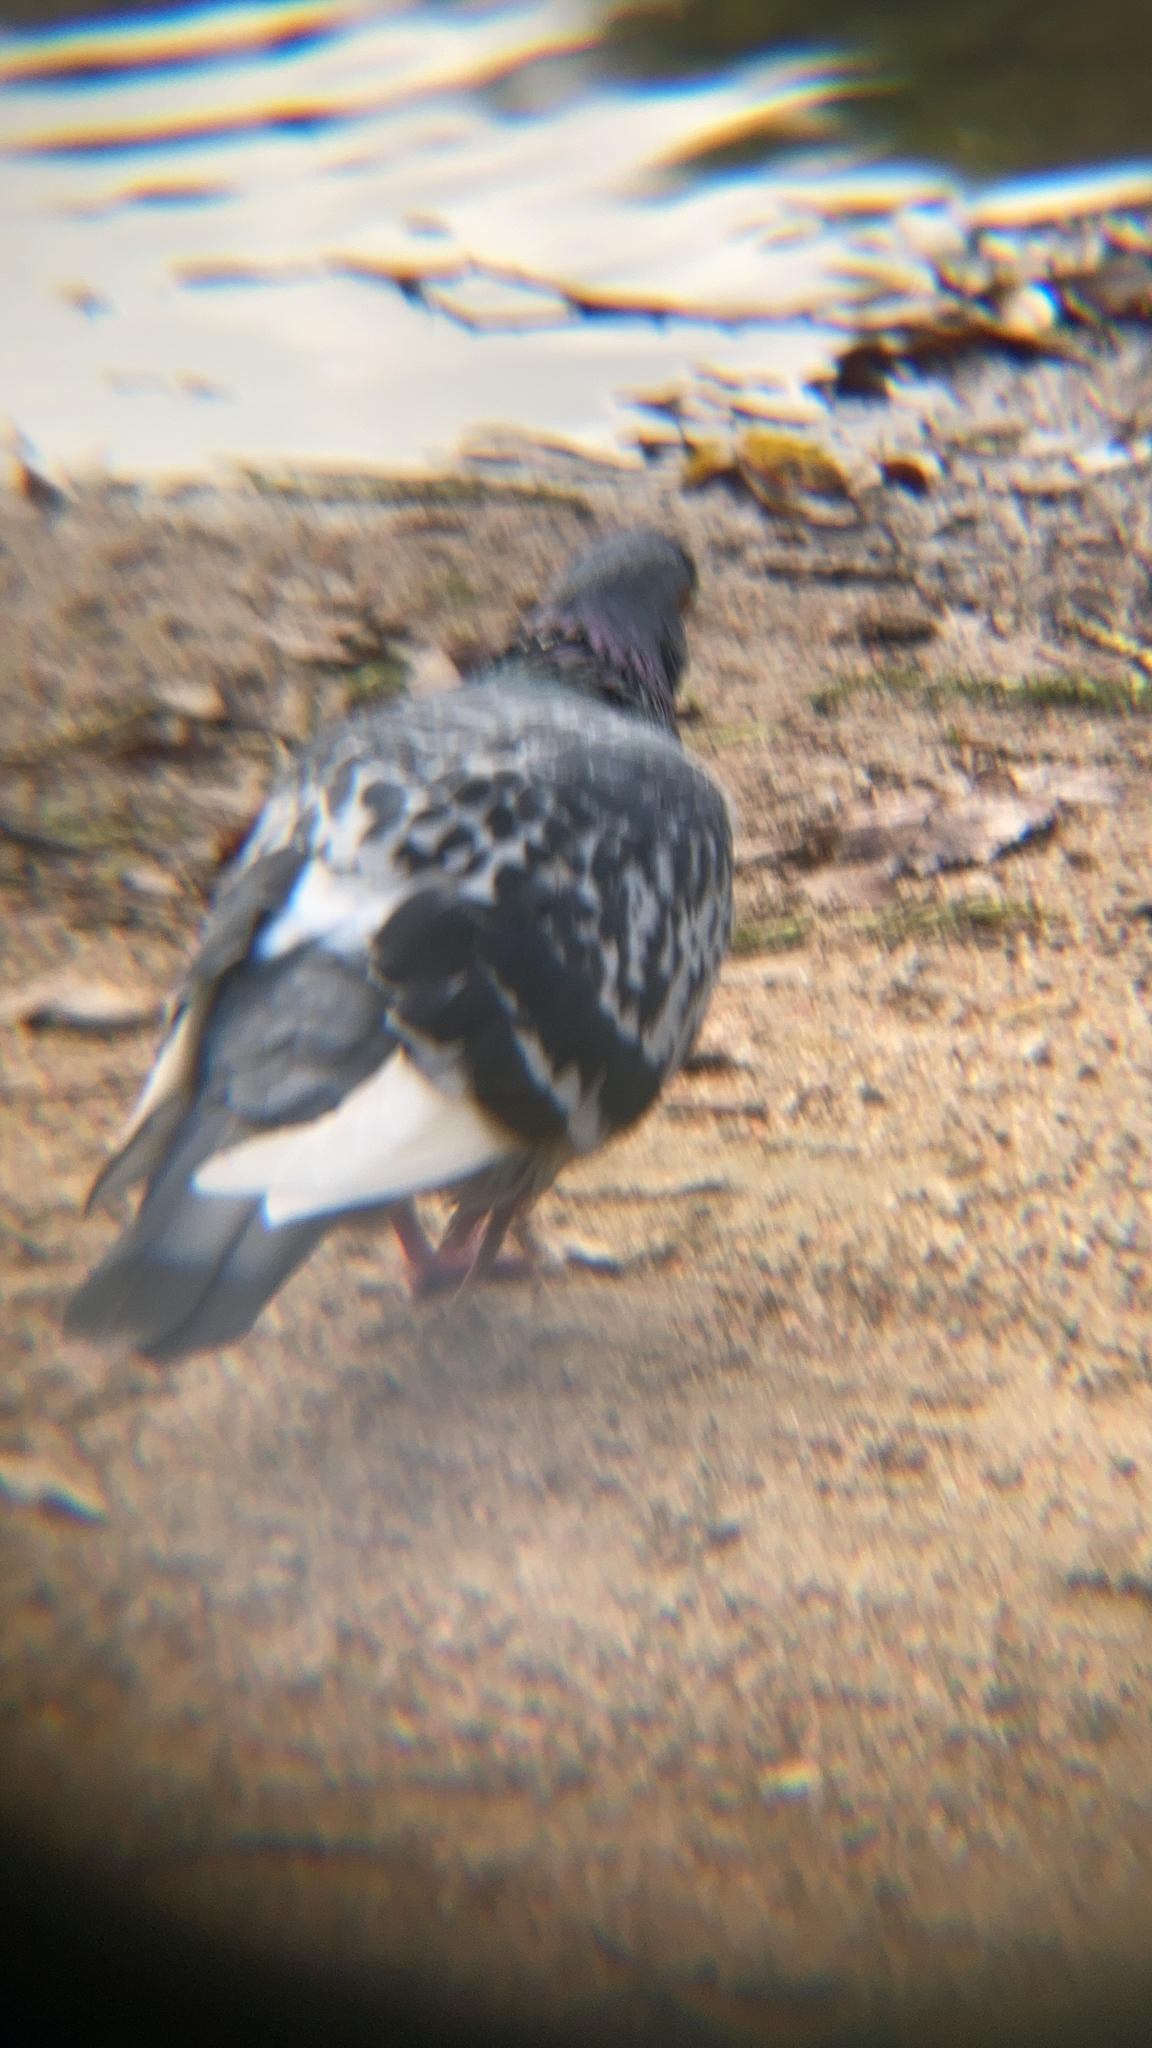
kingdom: Animalia
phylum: Chordata
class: Aves
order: Columbiformes
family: Columbidae
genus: Columba
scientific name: Columba livia
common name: Rock pigeon
